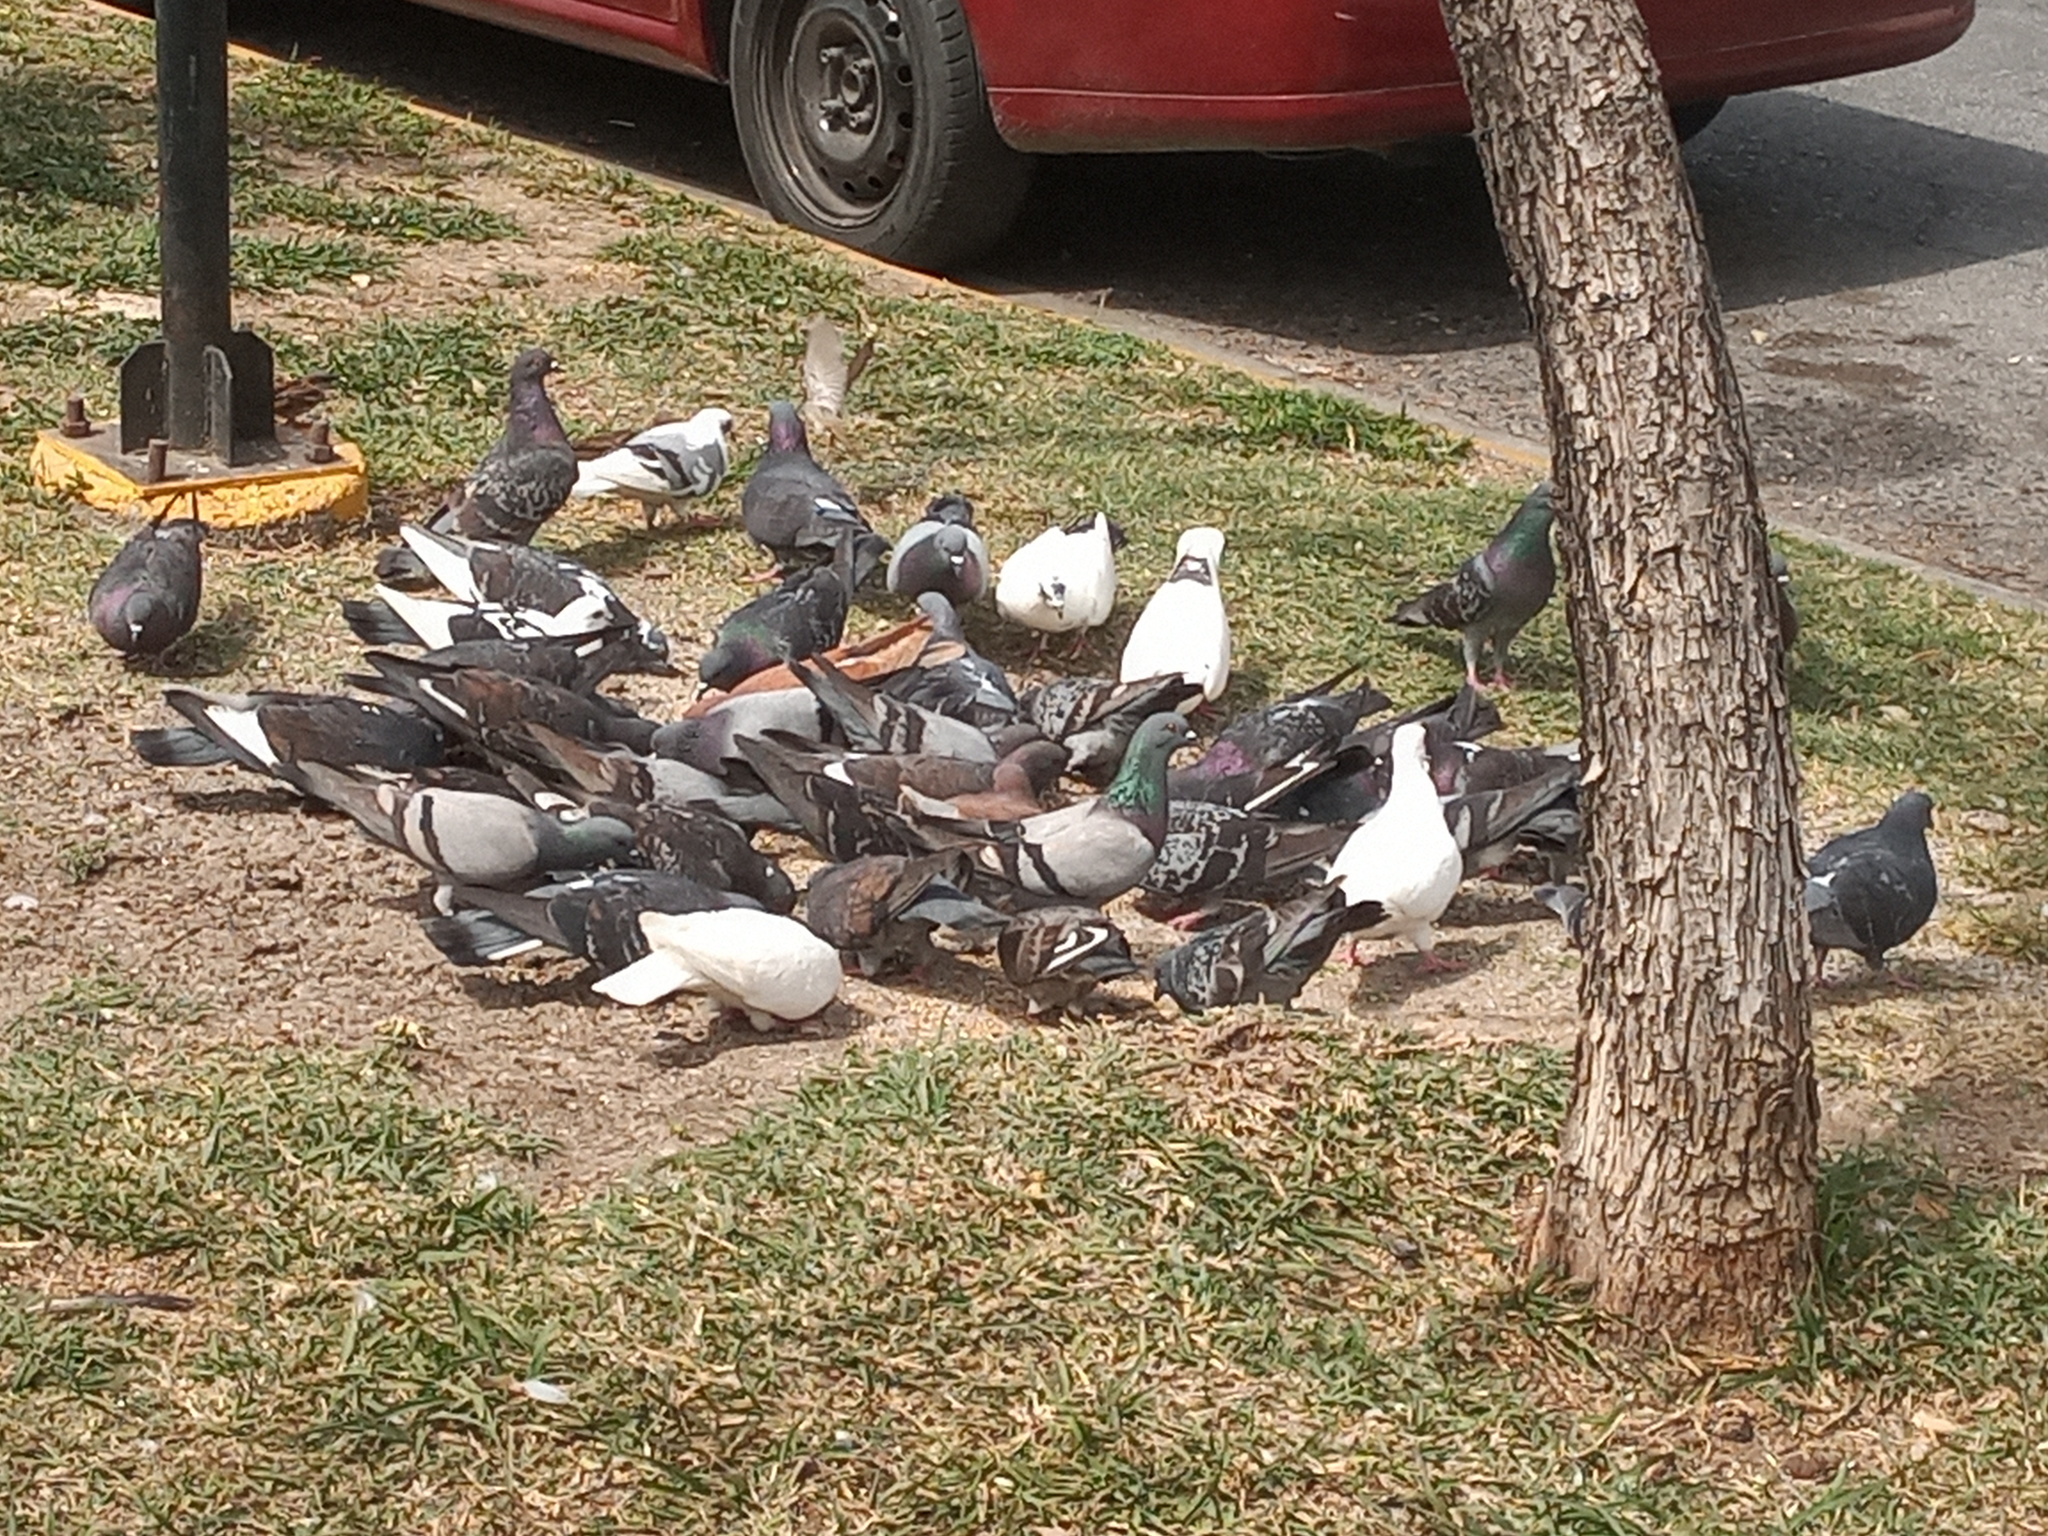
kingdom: Animalia
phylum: Chordata
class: Aves
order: Columbiformes
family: Columbidae
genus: Columba
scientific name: Columba livia
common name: Rock pigeon
